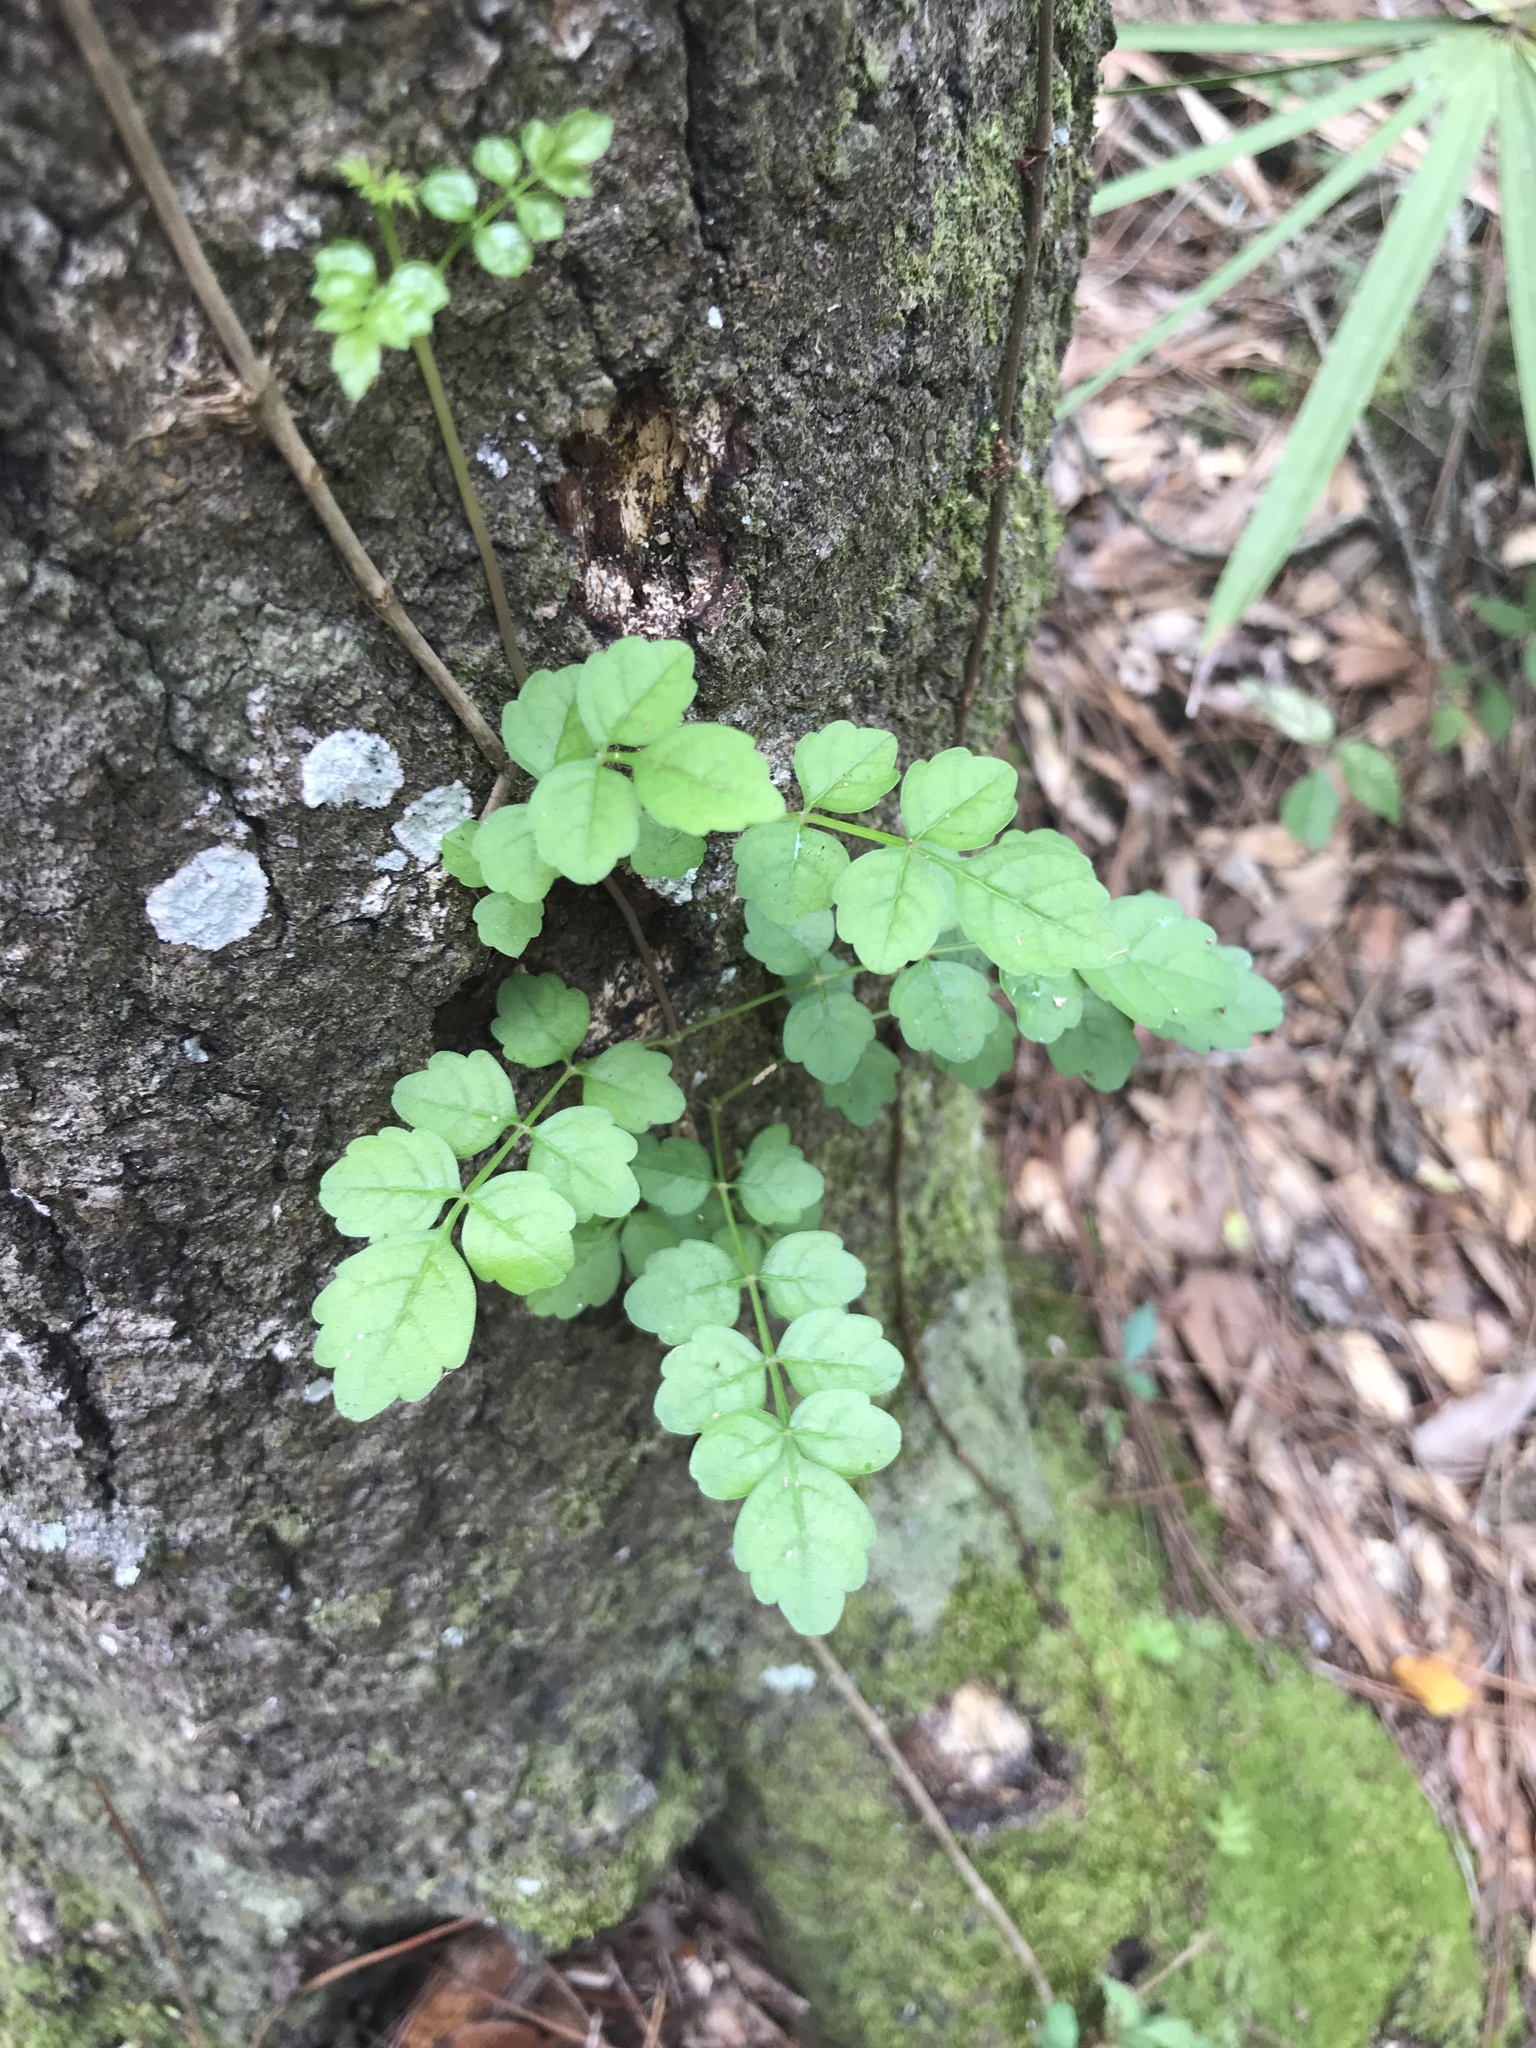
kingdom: Plantae
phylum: Tracheophyta
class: Magnoliopsida
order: Lamiales
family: Bignoniaceae
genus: Campsis
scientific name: Campsis radicans
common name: Trumpet-creeper
